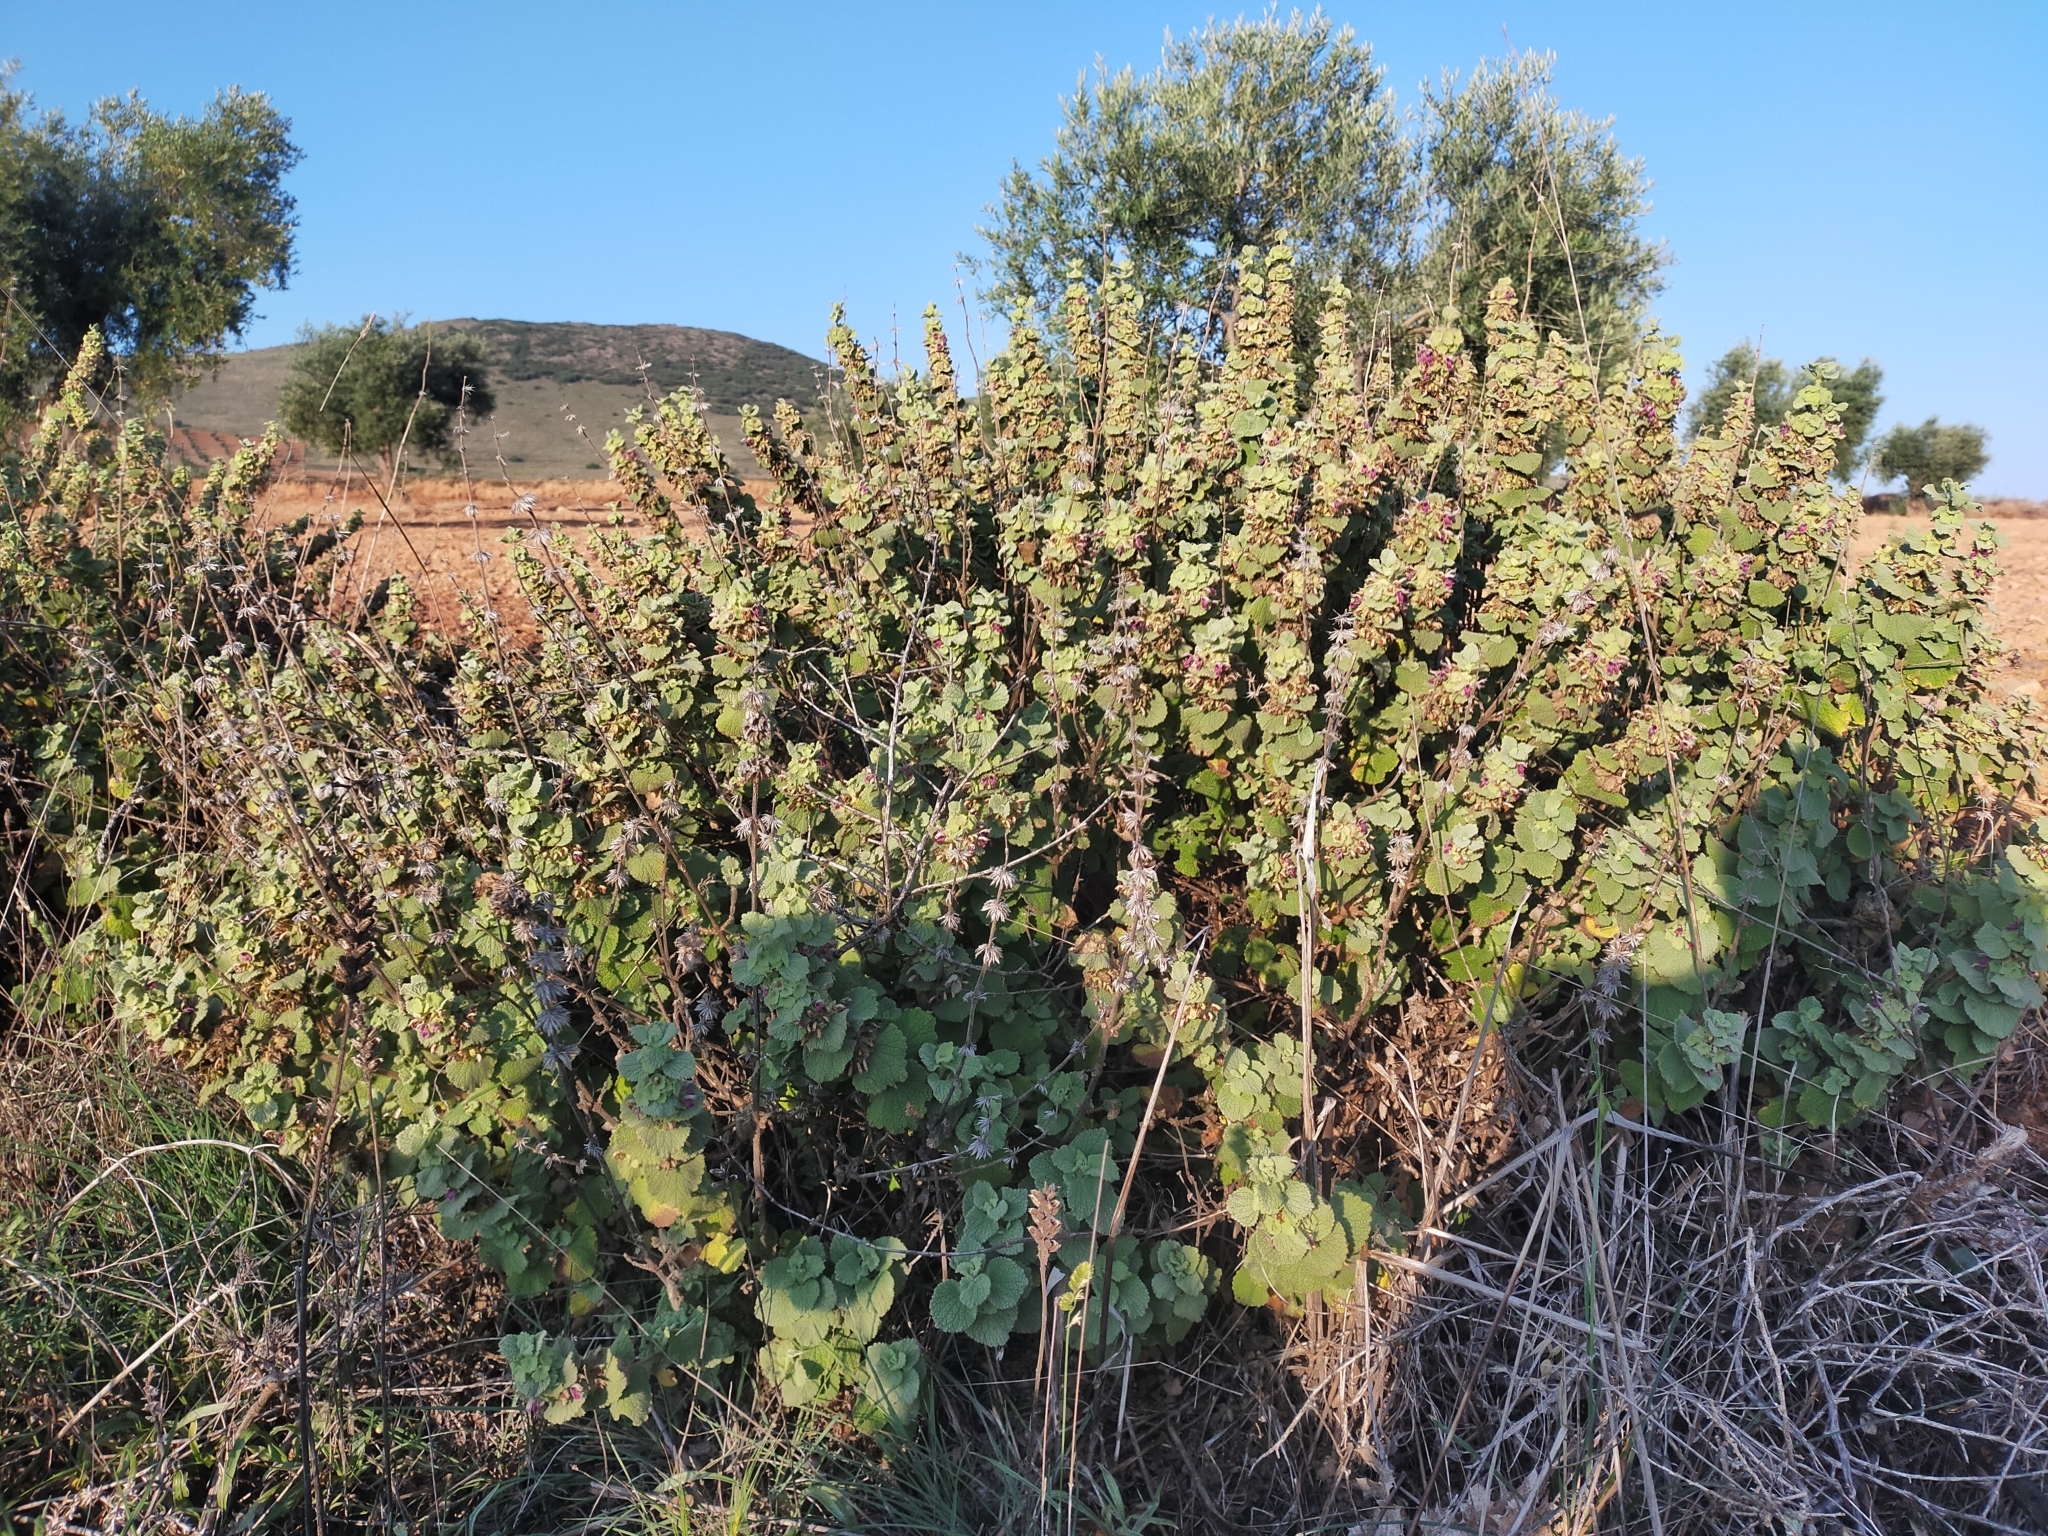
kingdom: Plantae
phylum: Tracheophyta
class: Magnoliopsida
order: Lamiales
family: Lamiaceae
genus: Pseudodictamnus
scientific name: Pseudodictamnus hirsutus
